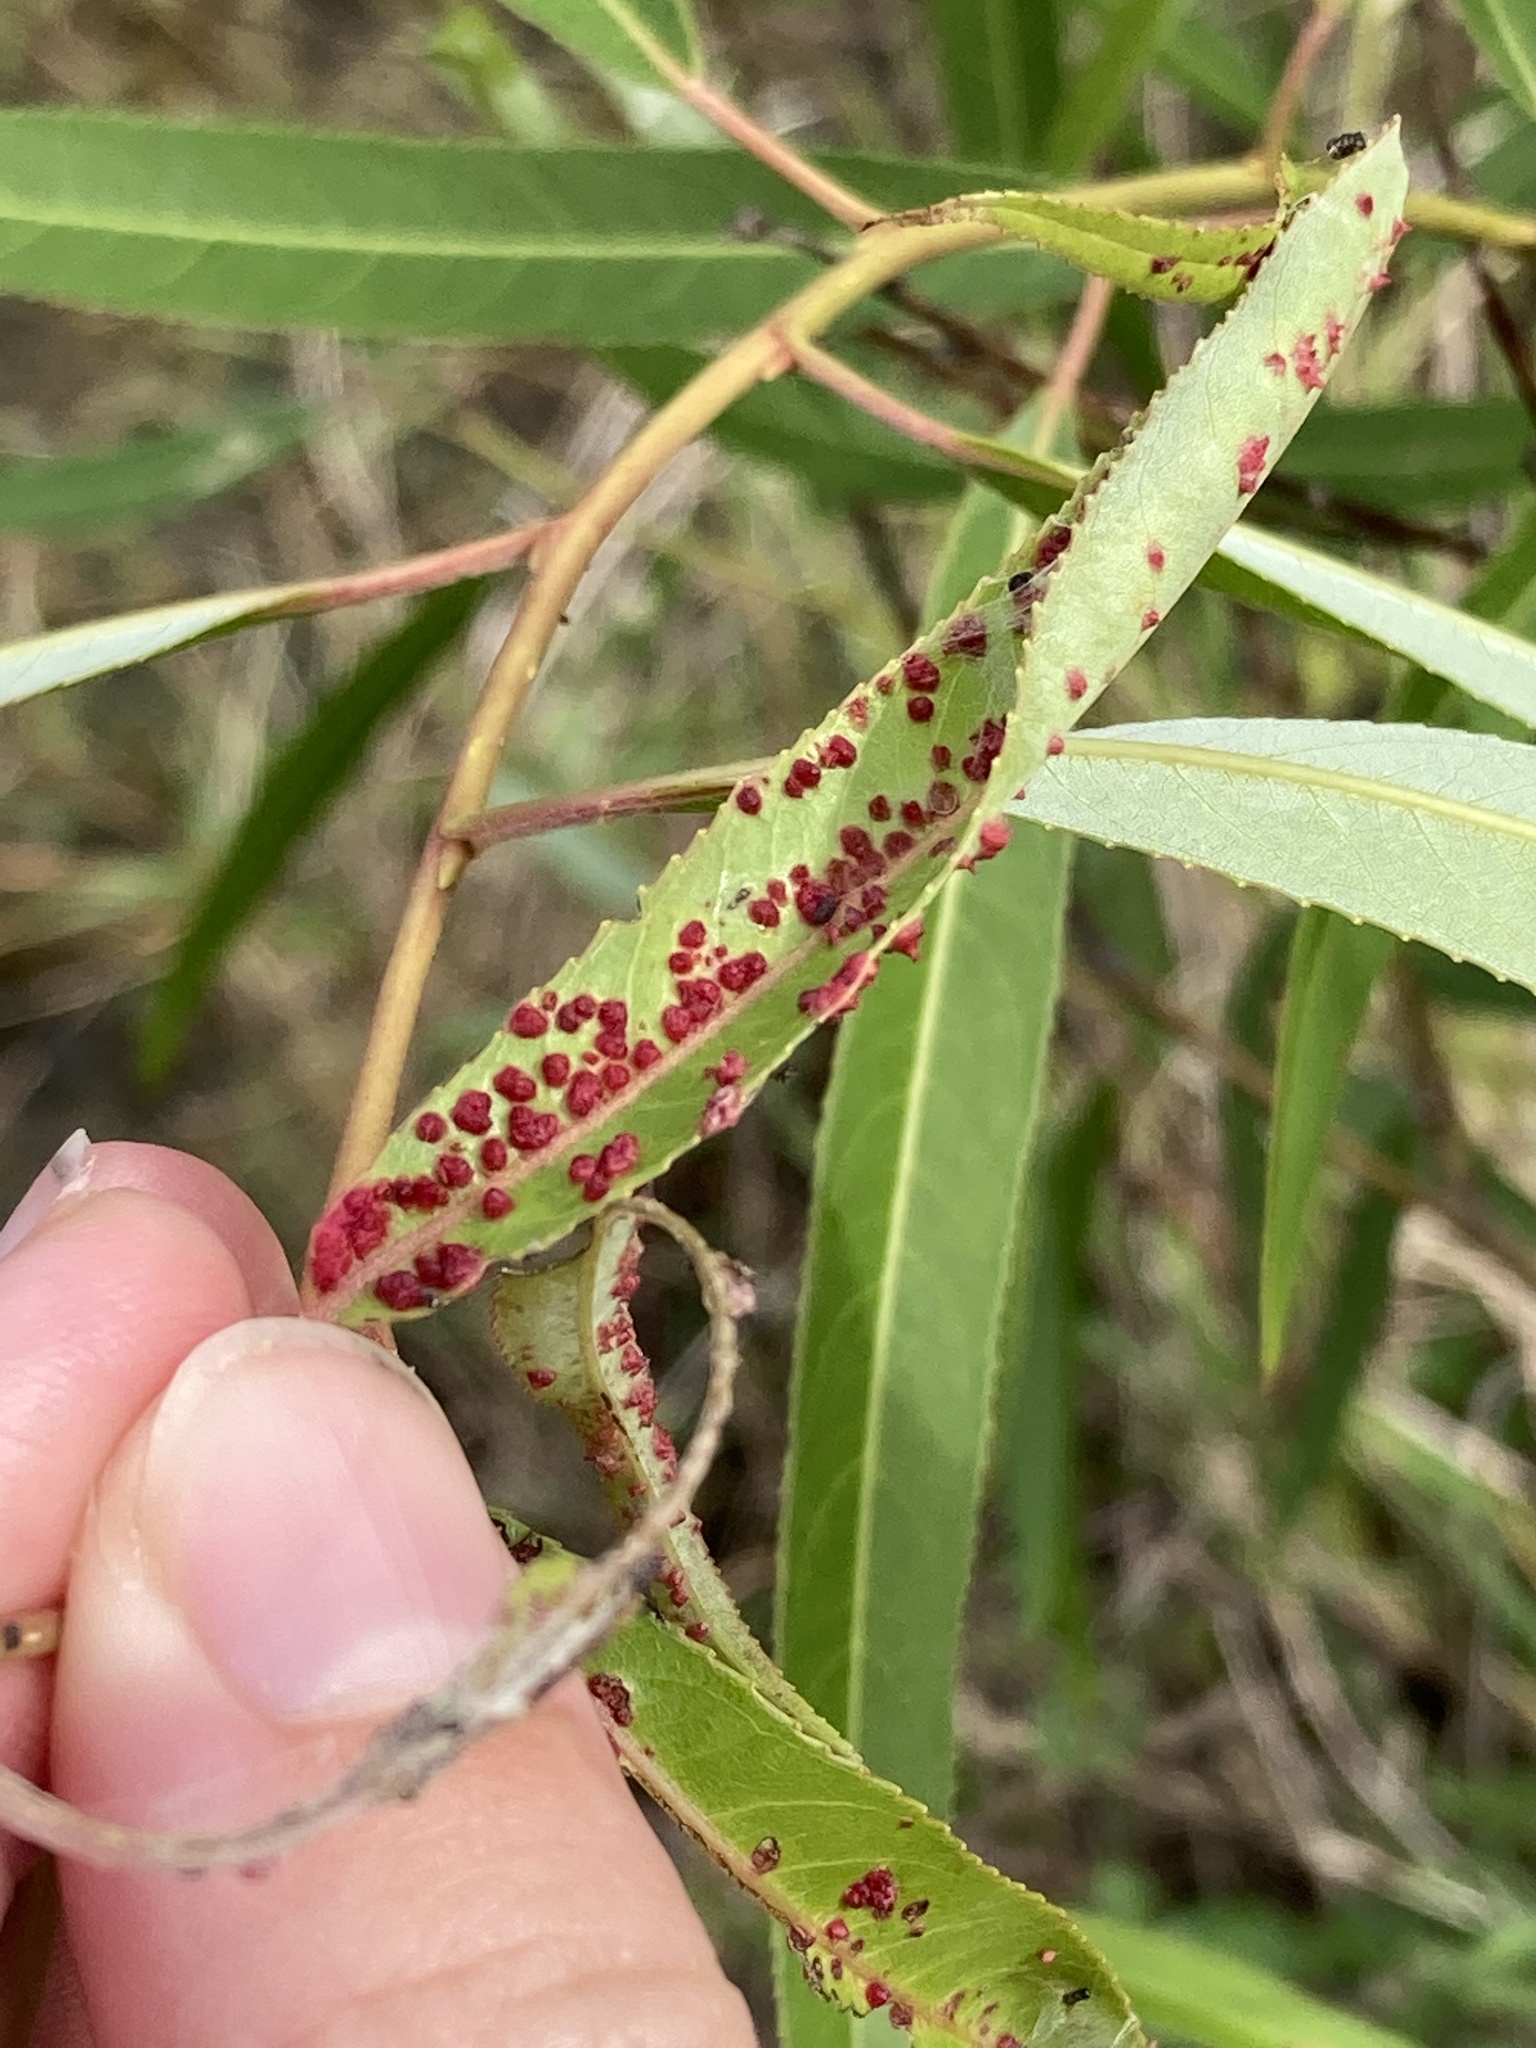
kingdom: Animalia
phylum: Arthropoda
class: Arachnida
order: Trombidiformes
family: Eriophyidae
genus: Aculus
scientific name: Aculus tetanothrix
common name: Willow bead gall mite
